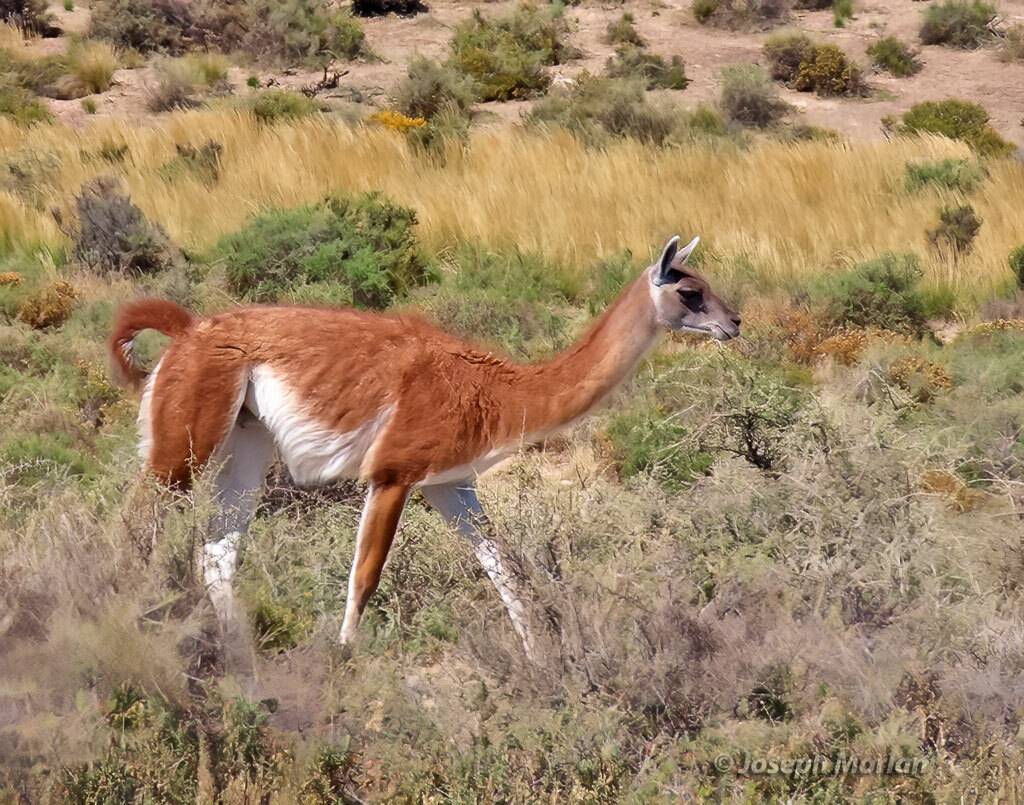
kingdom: Animalia
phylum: Chordata
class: Mammalia
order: Artiodactyla
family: Camelidae
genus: Lama
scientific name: Lama glama
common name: Llama
